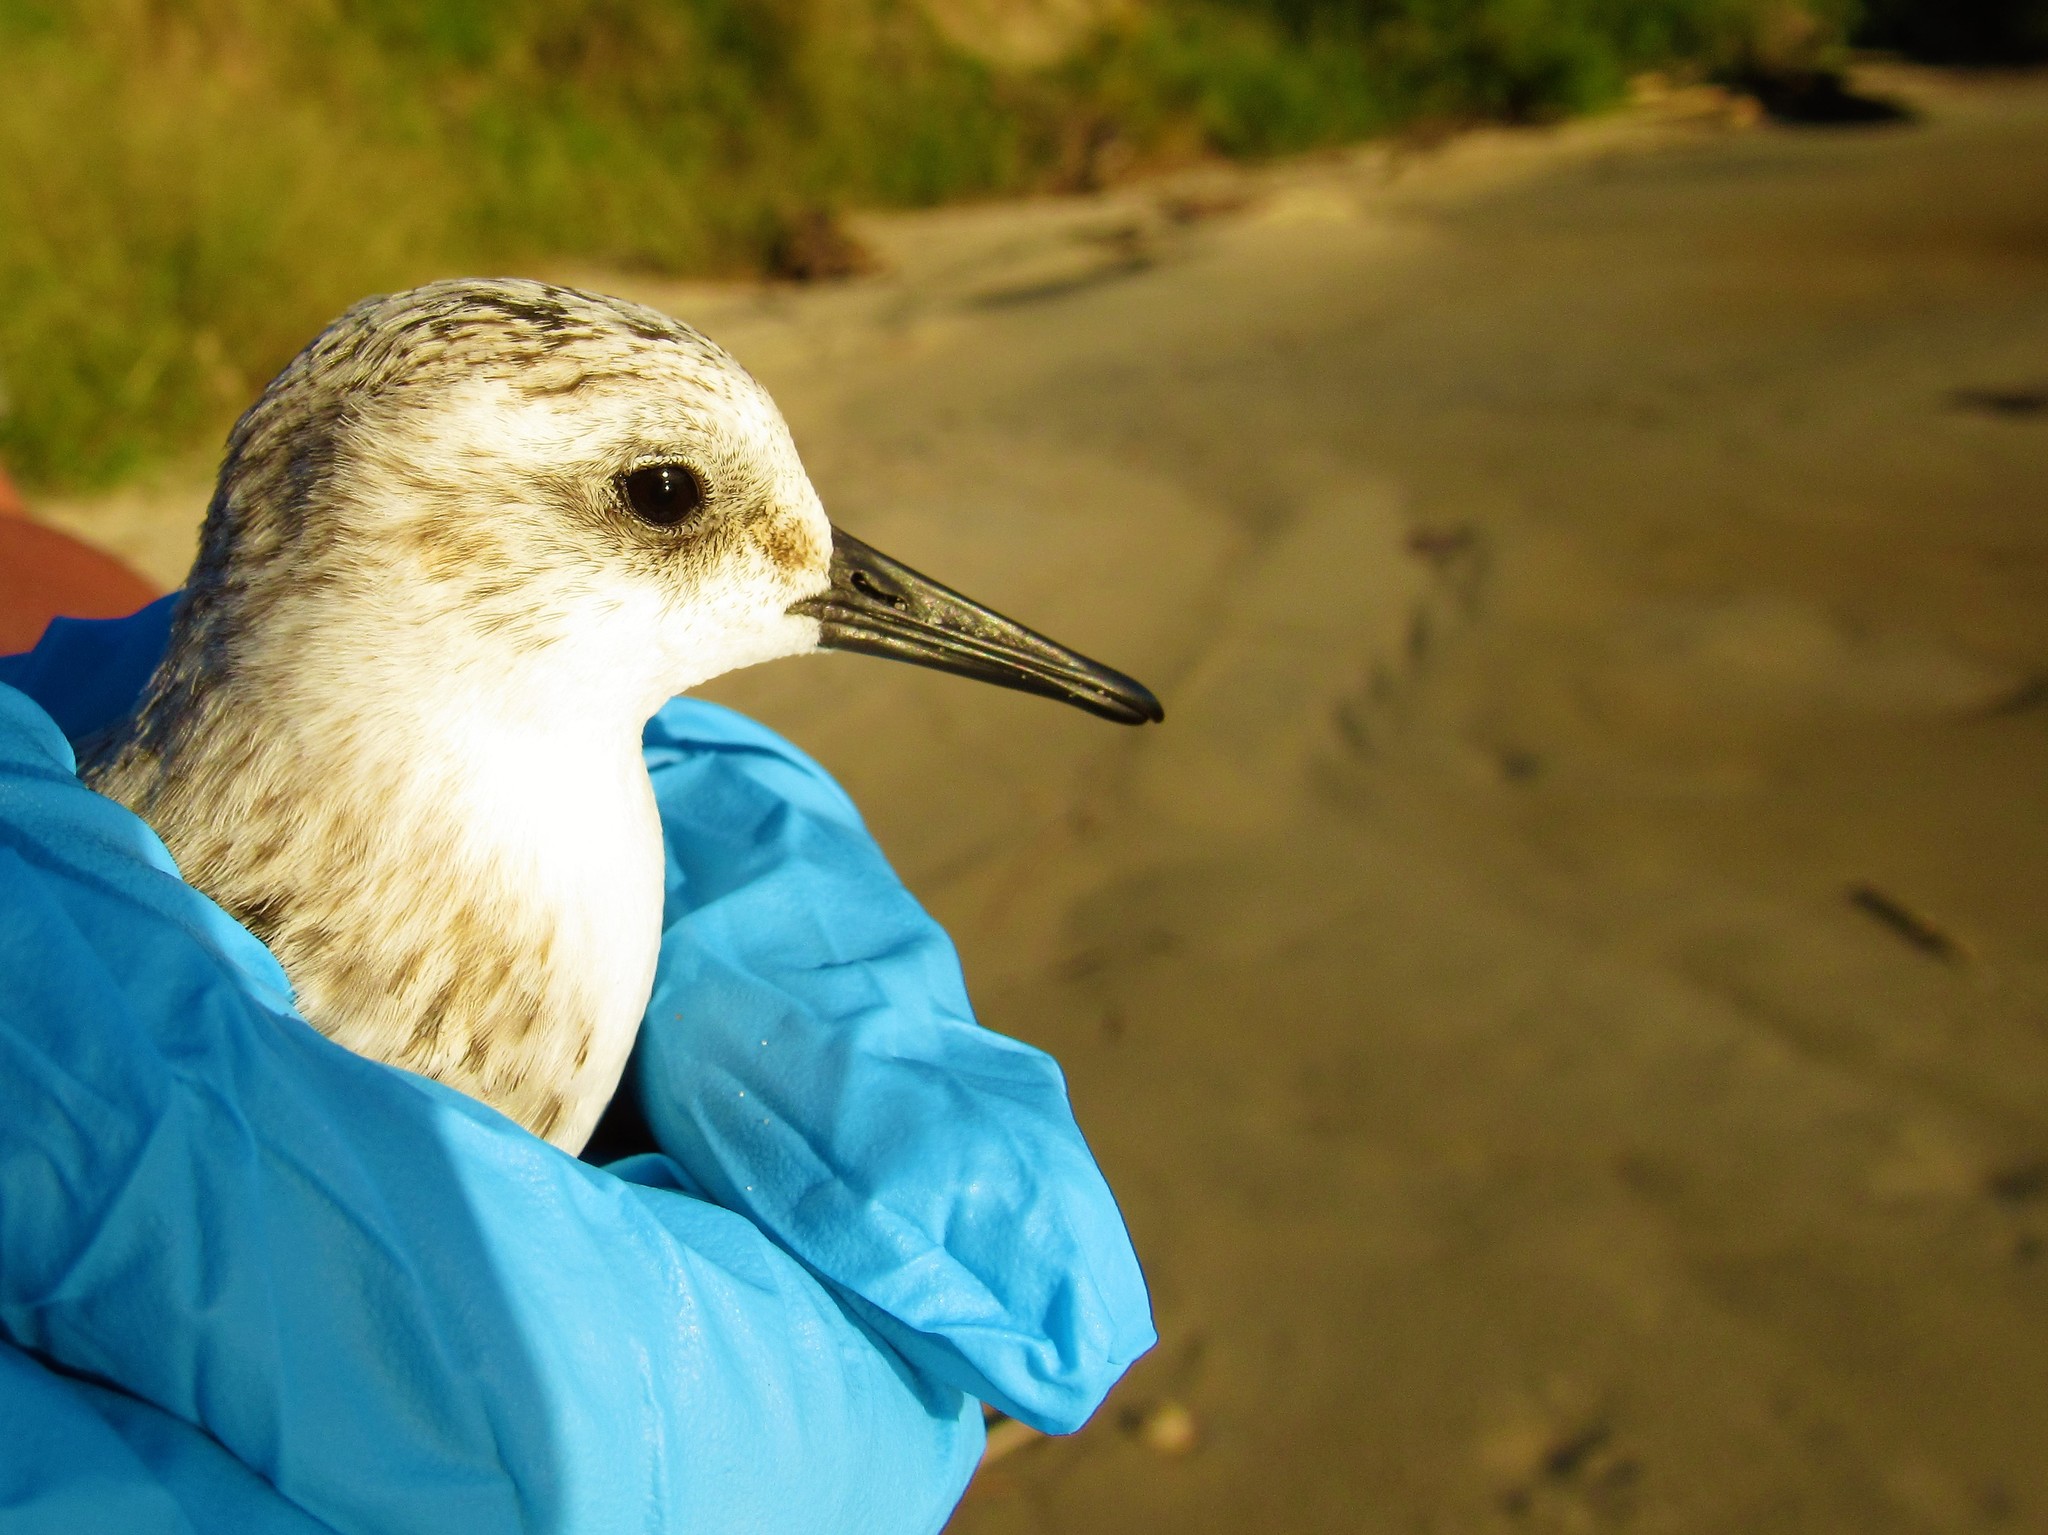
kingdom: Animalia
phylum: Chordata
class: Aves
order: Charadriiformes
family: Scolopacidae
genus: Calidris
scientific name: Calidris alba
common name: Sanderling
